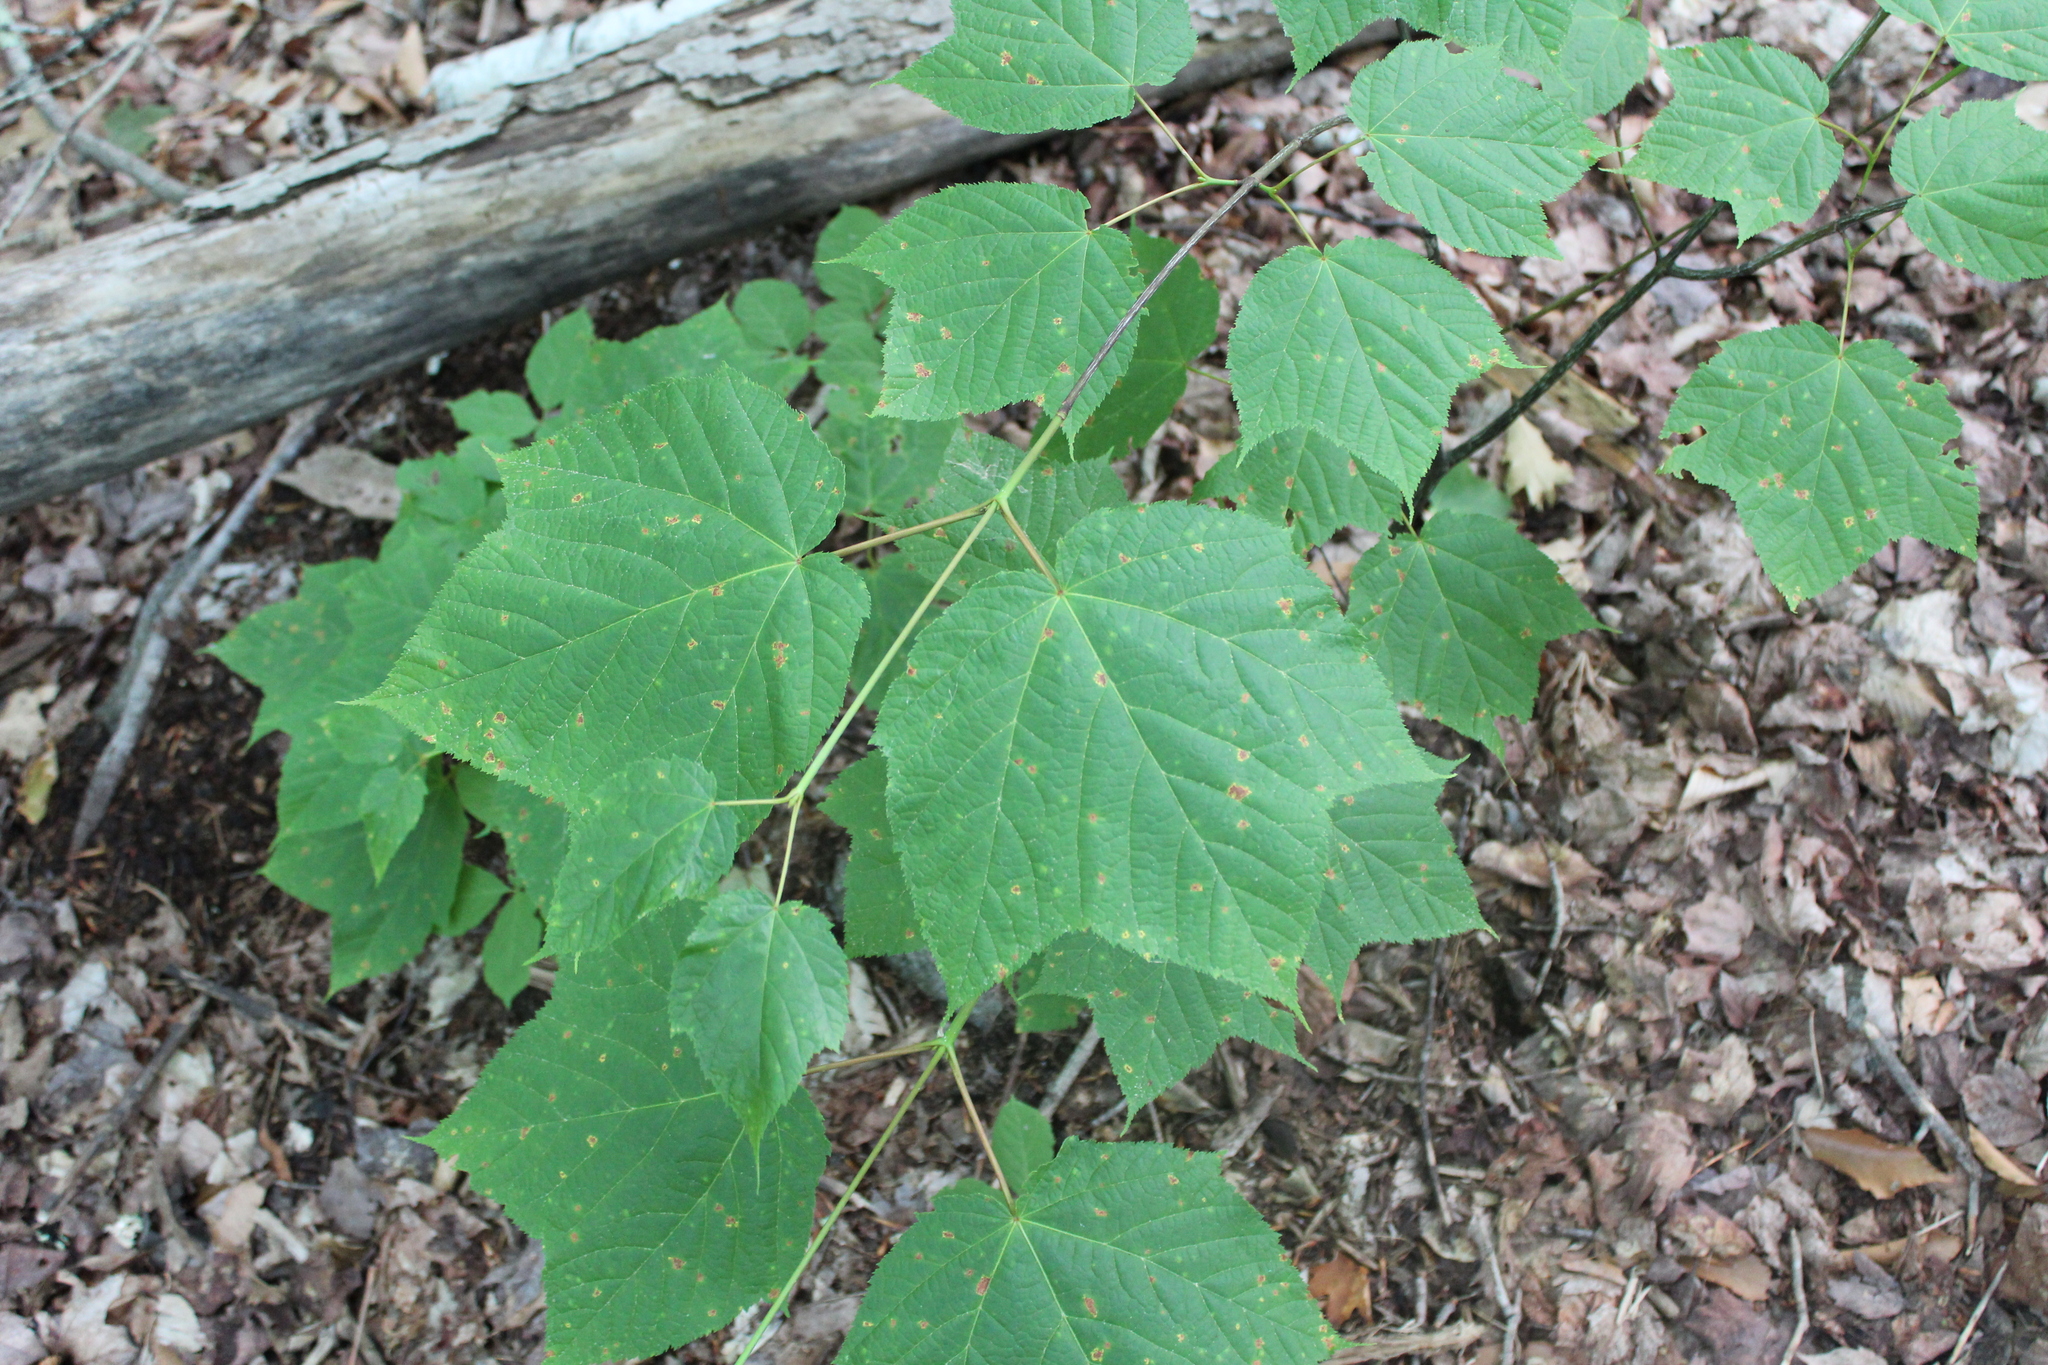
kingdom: Plantae
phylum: Tracheophyta
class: Magnoliopsida
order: Sapindales
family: Sapindaceae
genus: Acer
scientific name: Acer pensylvanicum
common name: Moosewood
